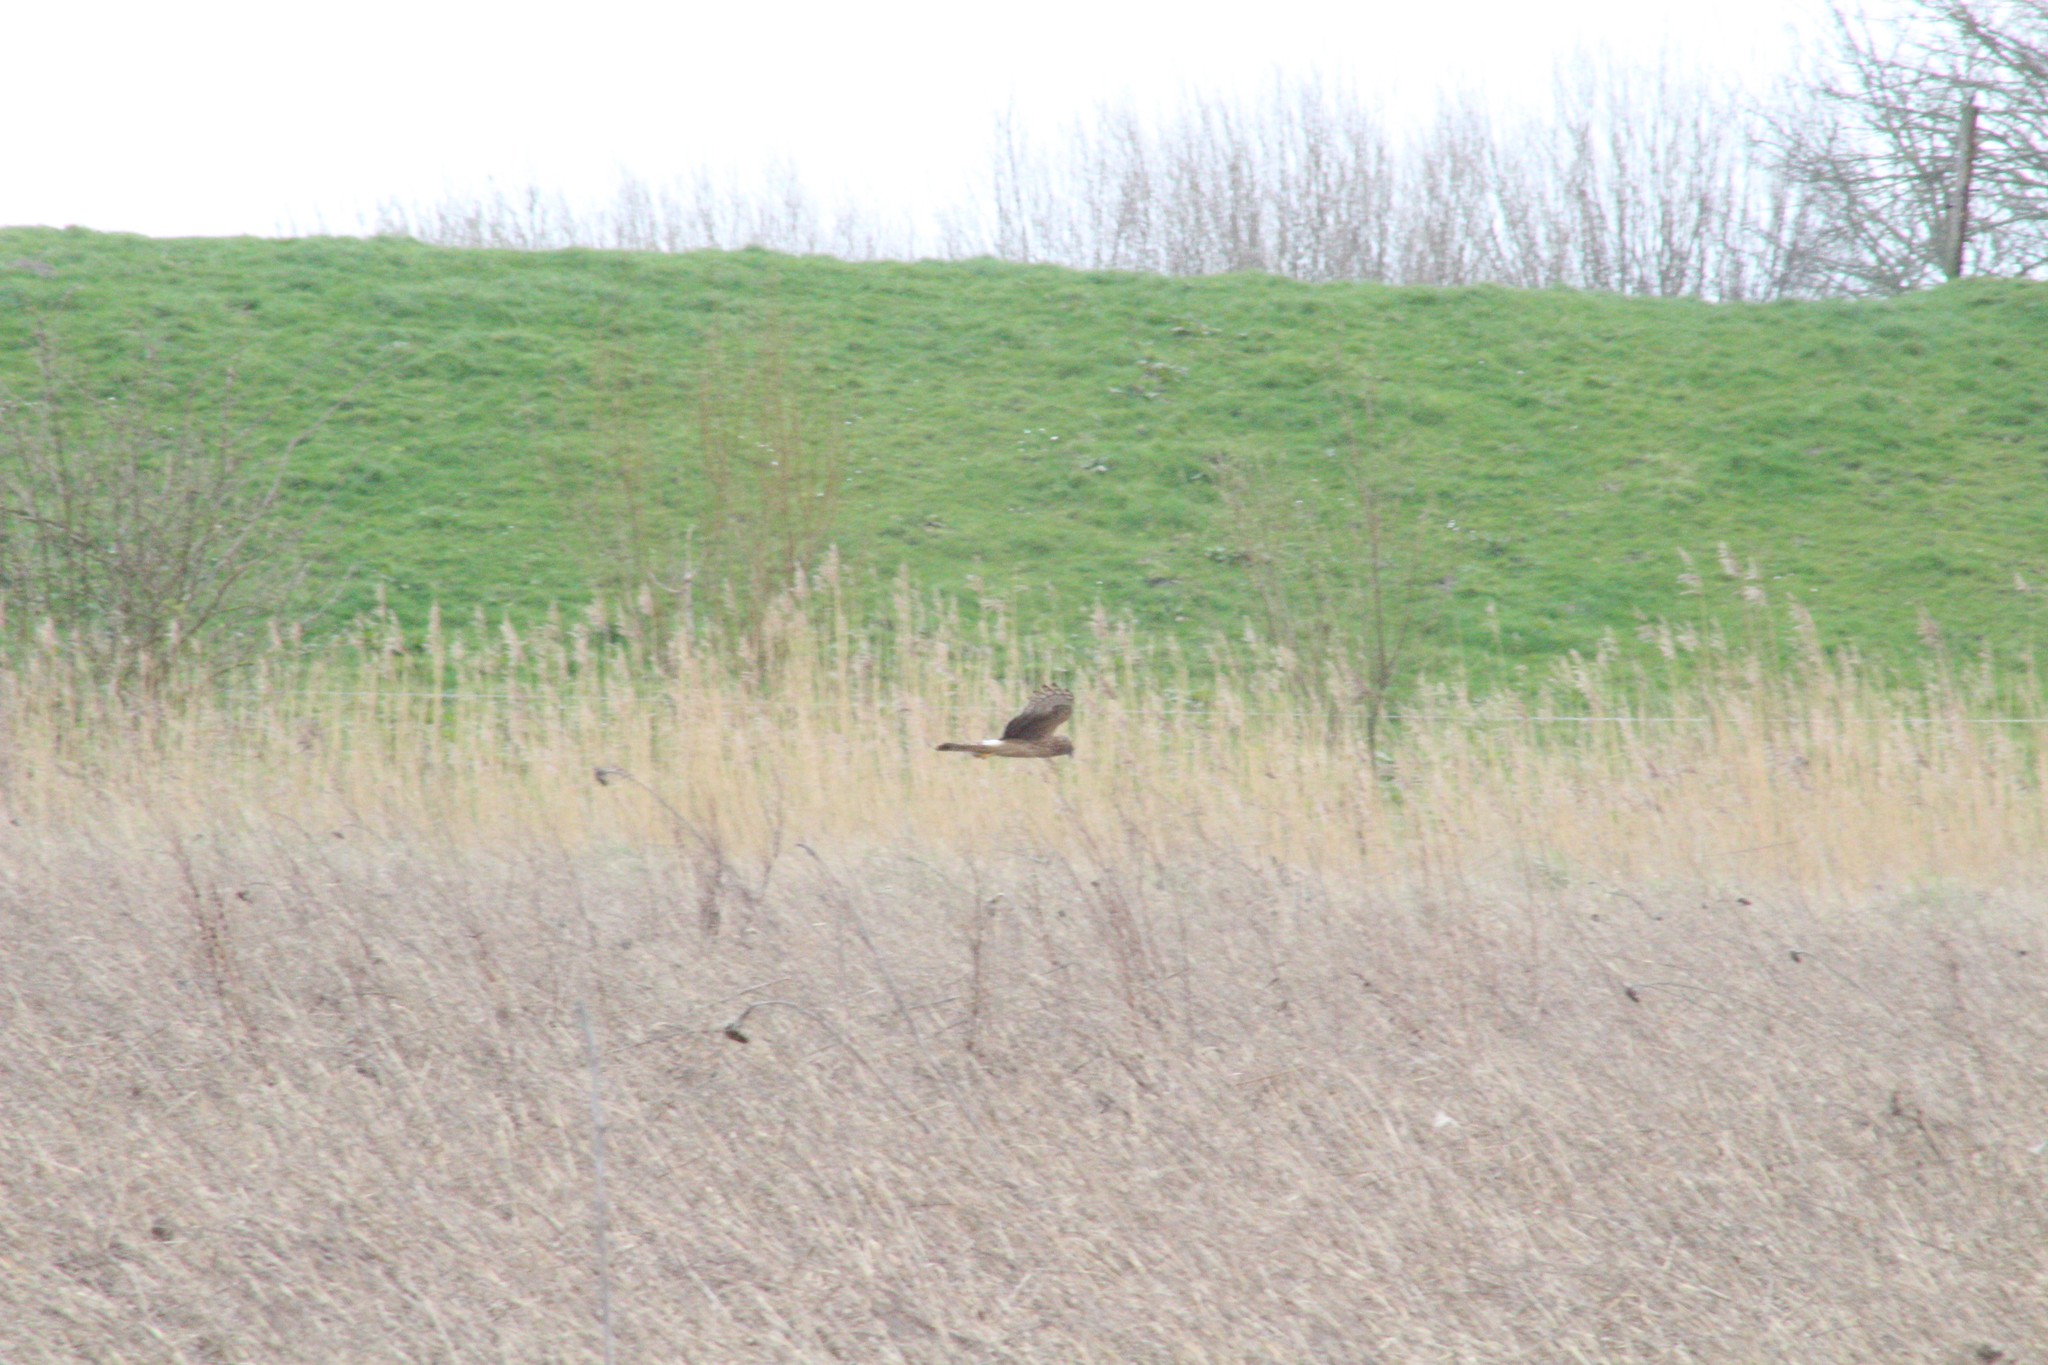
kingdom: Animalia
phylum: Chordata
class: Aves
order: Accipitriformes
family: Accipitridae
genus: Circus
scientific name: Circus cyaneus
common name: Hen harrier
